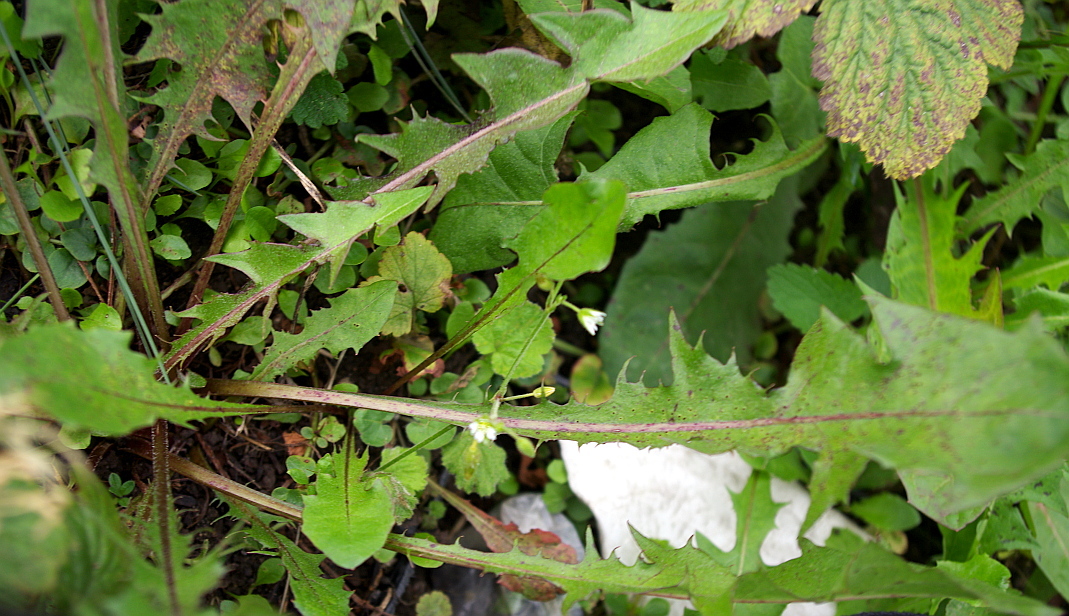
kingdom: Plantae
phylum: Tracheophyta
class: Magnoliopsida
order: Asterales
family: Asteraceae
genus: Taraxacum
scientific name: Taraxacum officinale
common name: Common dandelion
